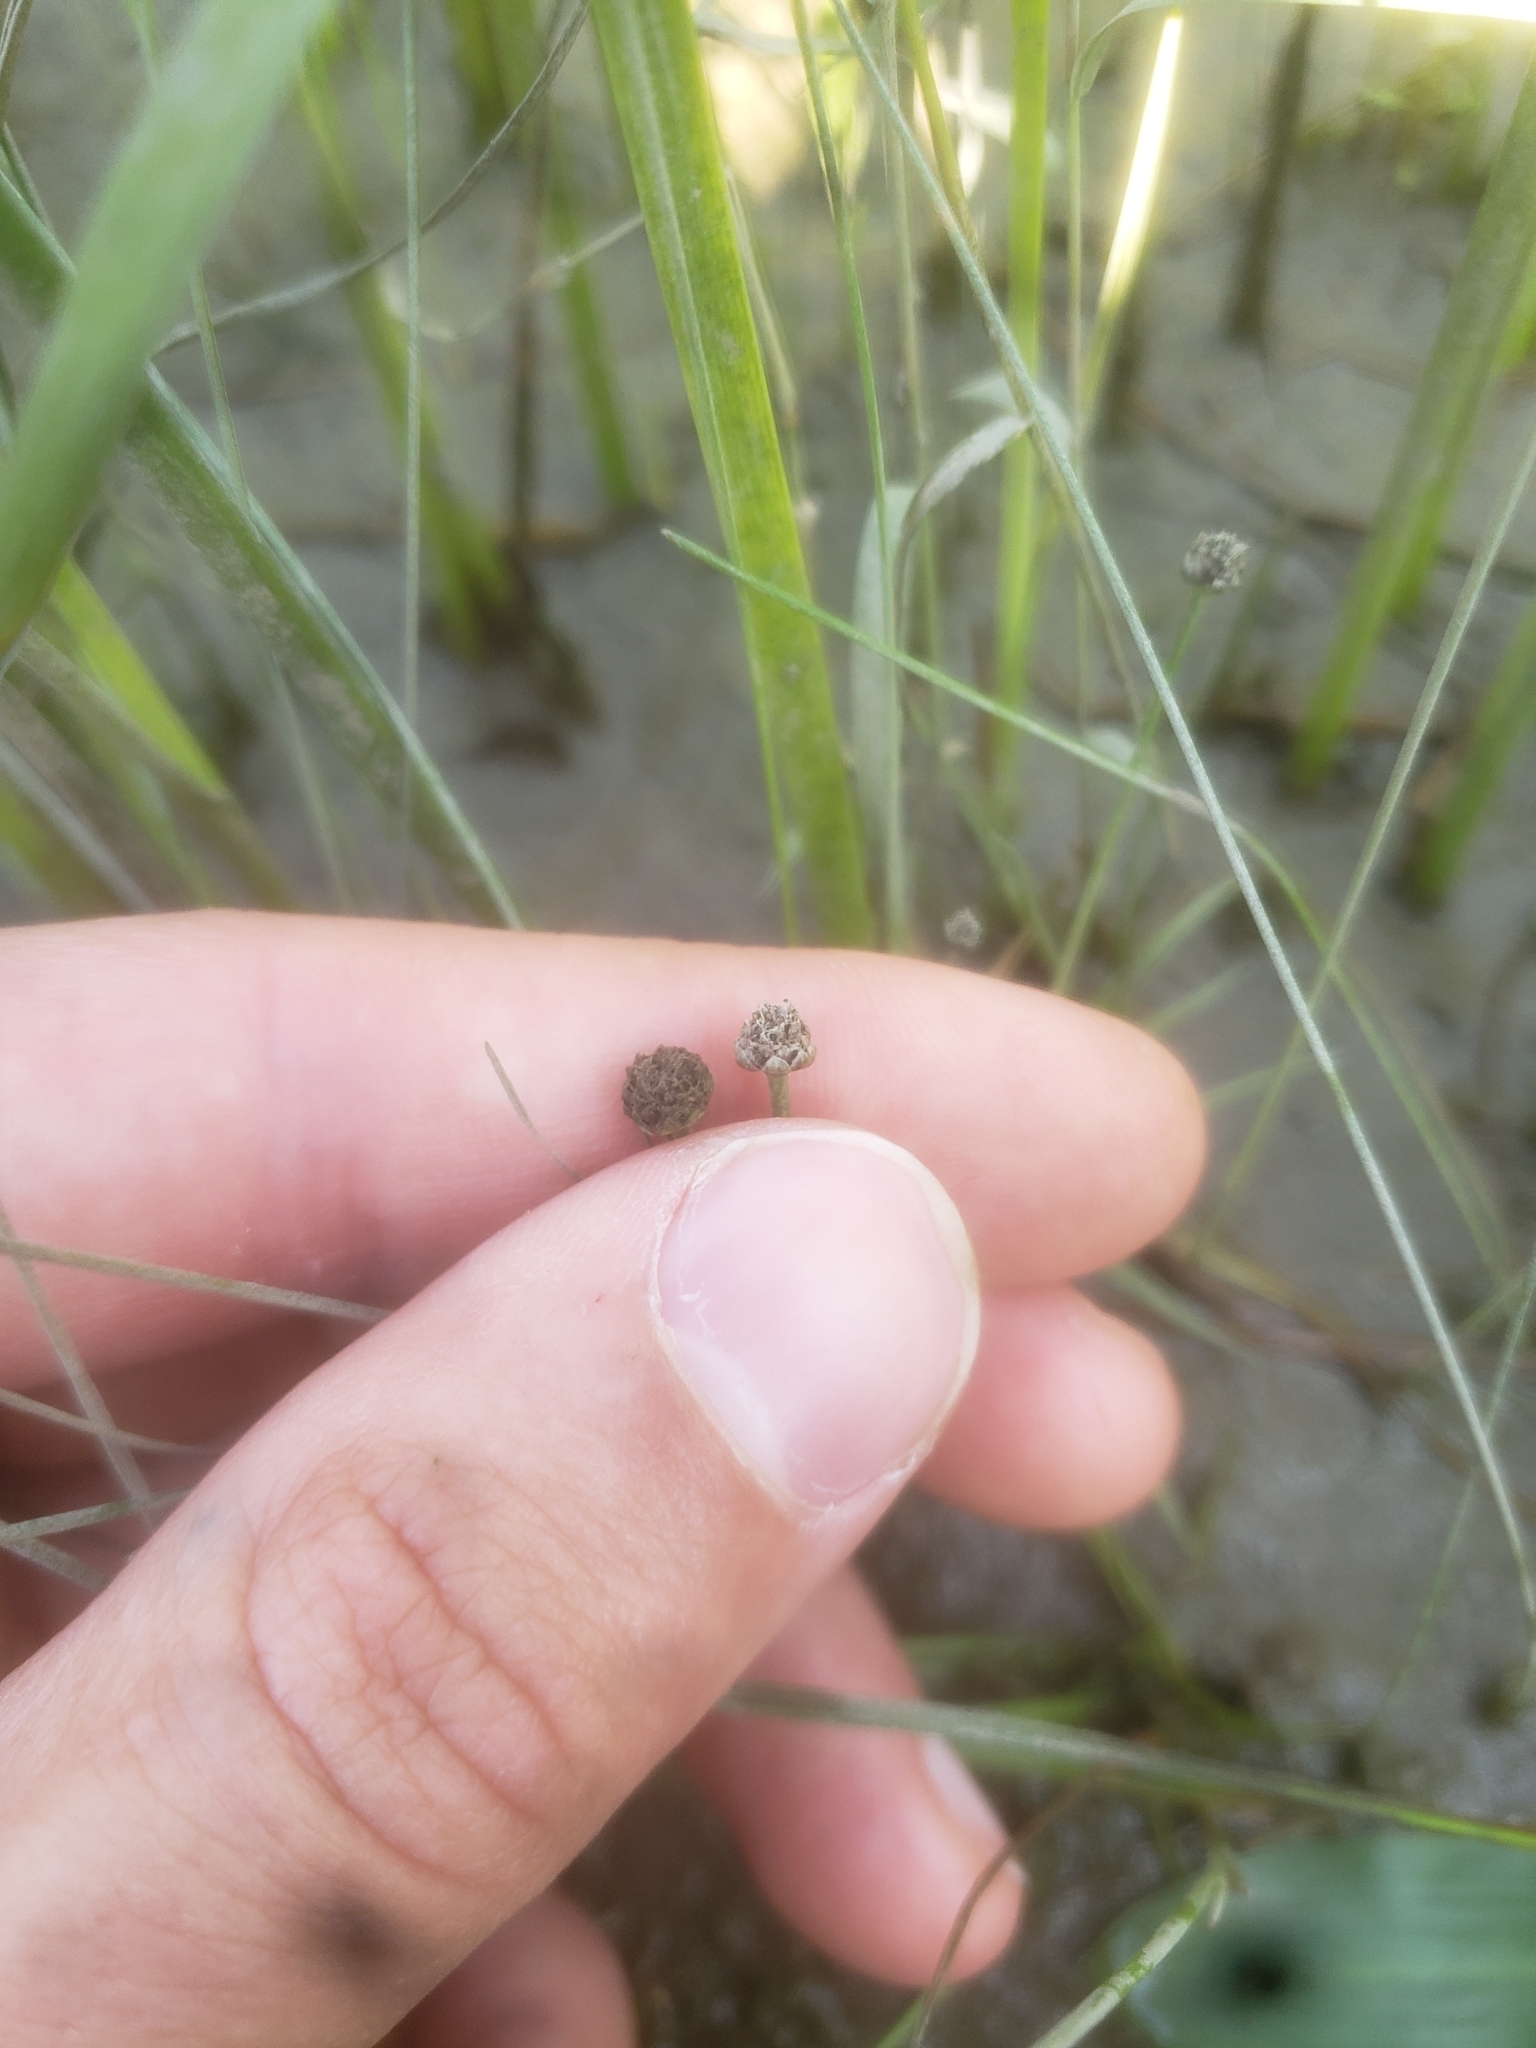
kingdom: Plantae
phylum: Tracheophyta
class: Liliopsida
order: Poales
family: Eriocaulaceae
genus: Eriocaulon
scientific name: Eriocaulon parkeri
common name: Parker's pipewort
